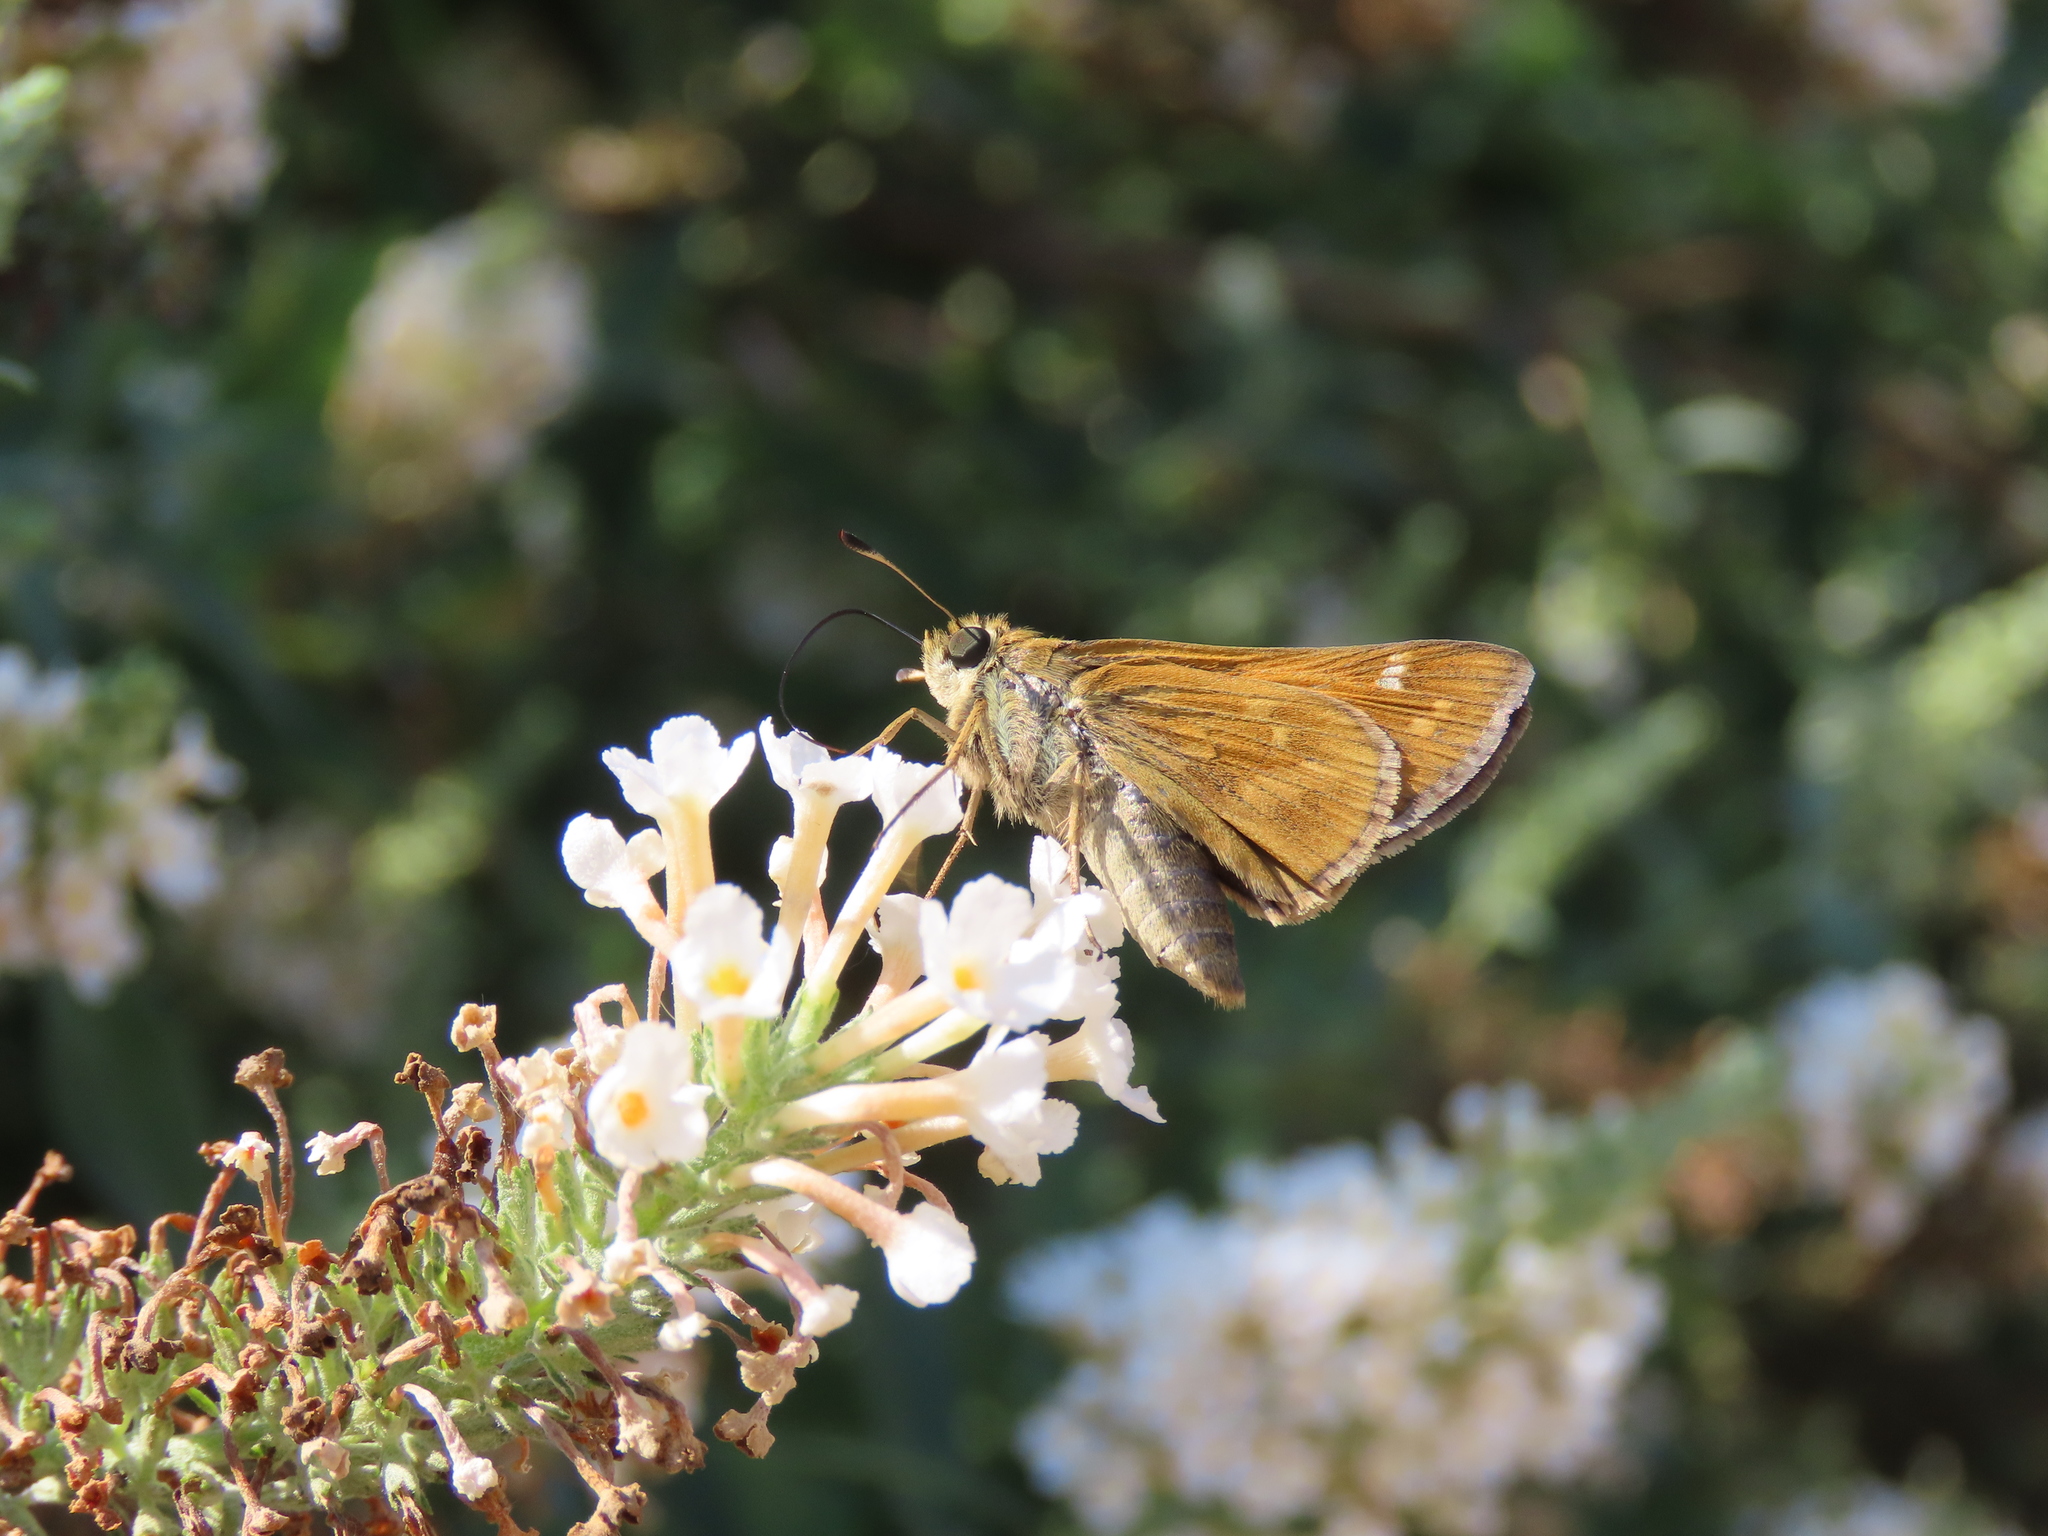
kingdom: Animalia
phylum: Arthropoda
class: Insecta
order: Lepidoptera
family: Hesperiidae
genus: Atalopedes
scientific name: Atalopedes
